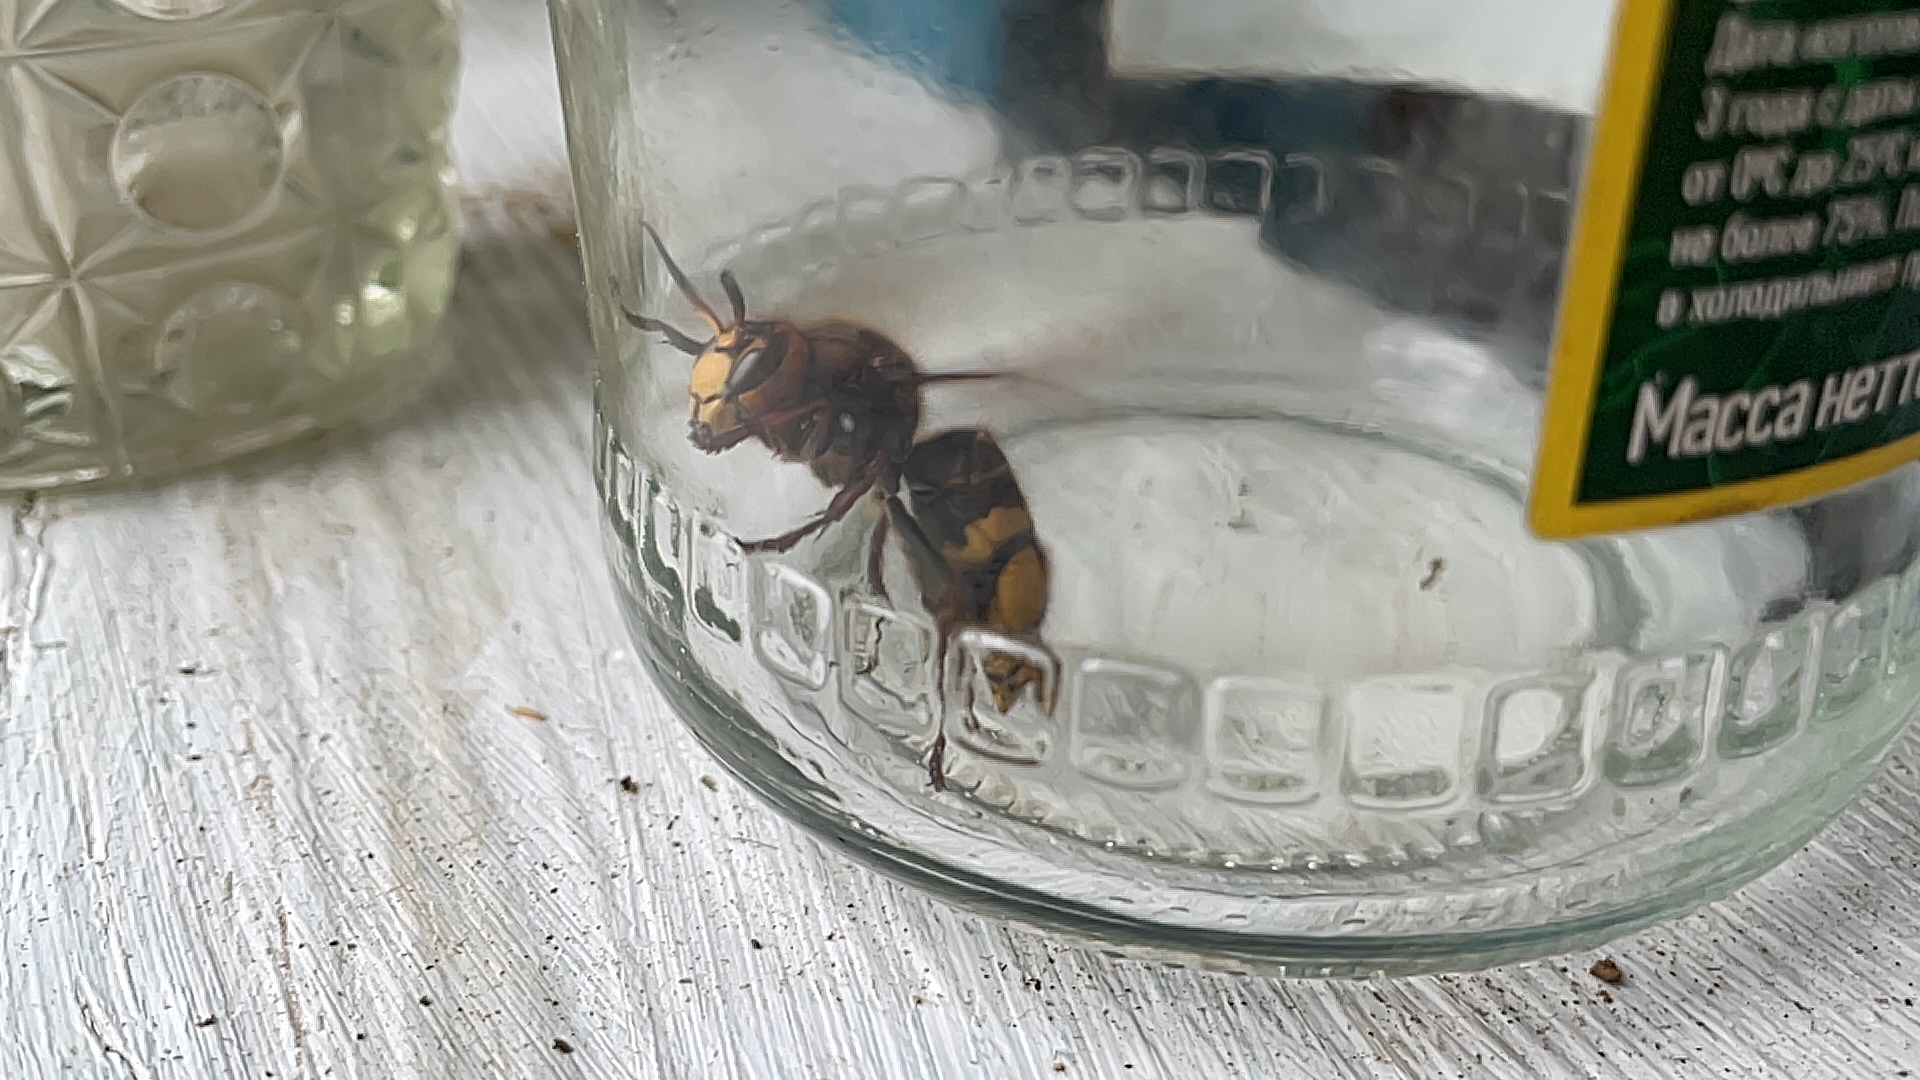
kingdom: Animalia
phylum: Arthropoda
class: Insecta
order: Hymenoptera
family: Vespidae
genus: Vespa
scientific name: Vespa crabro
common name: Hornet
